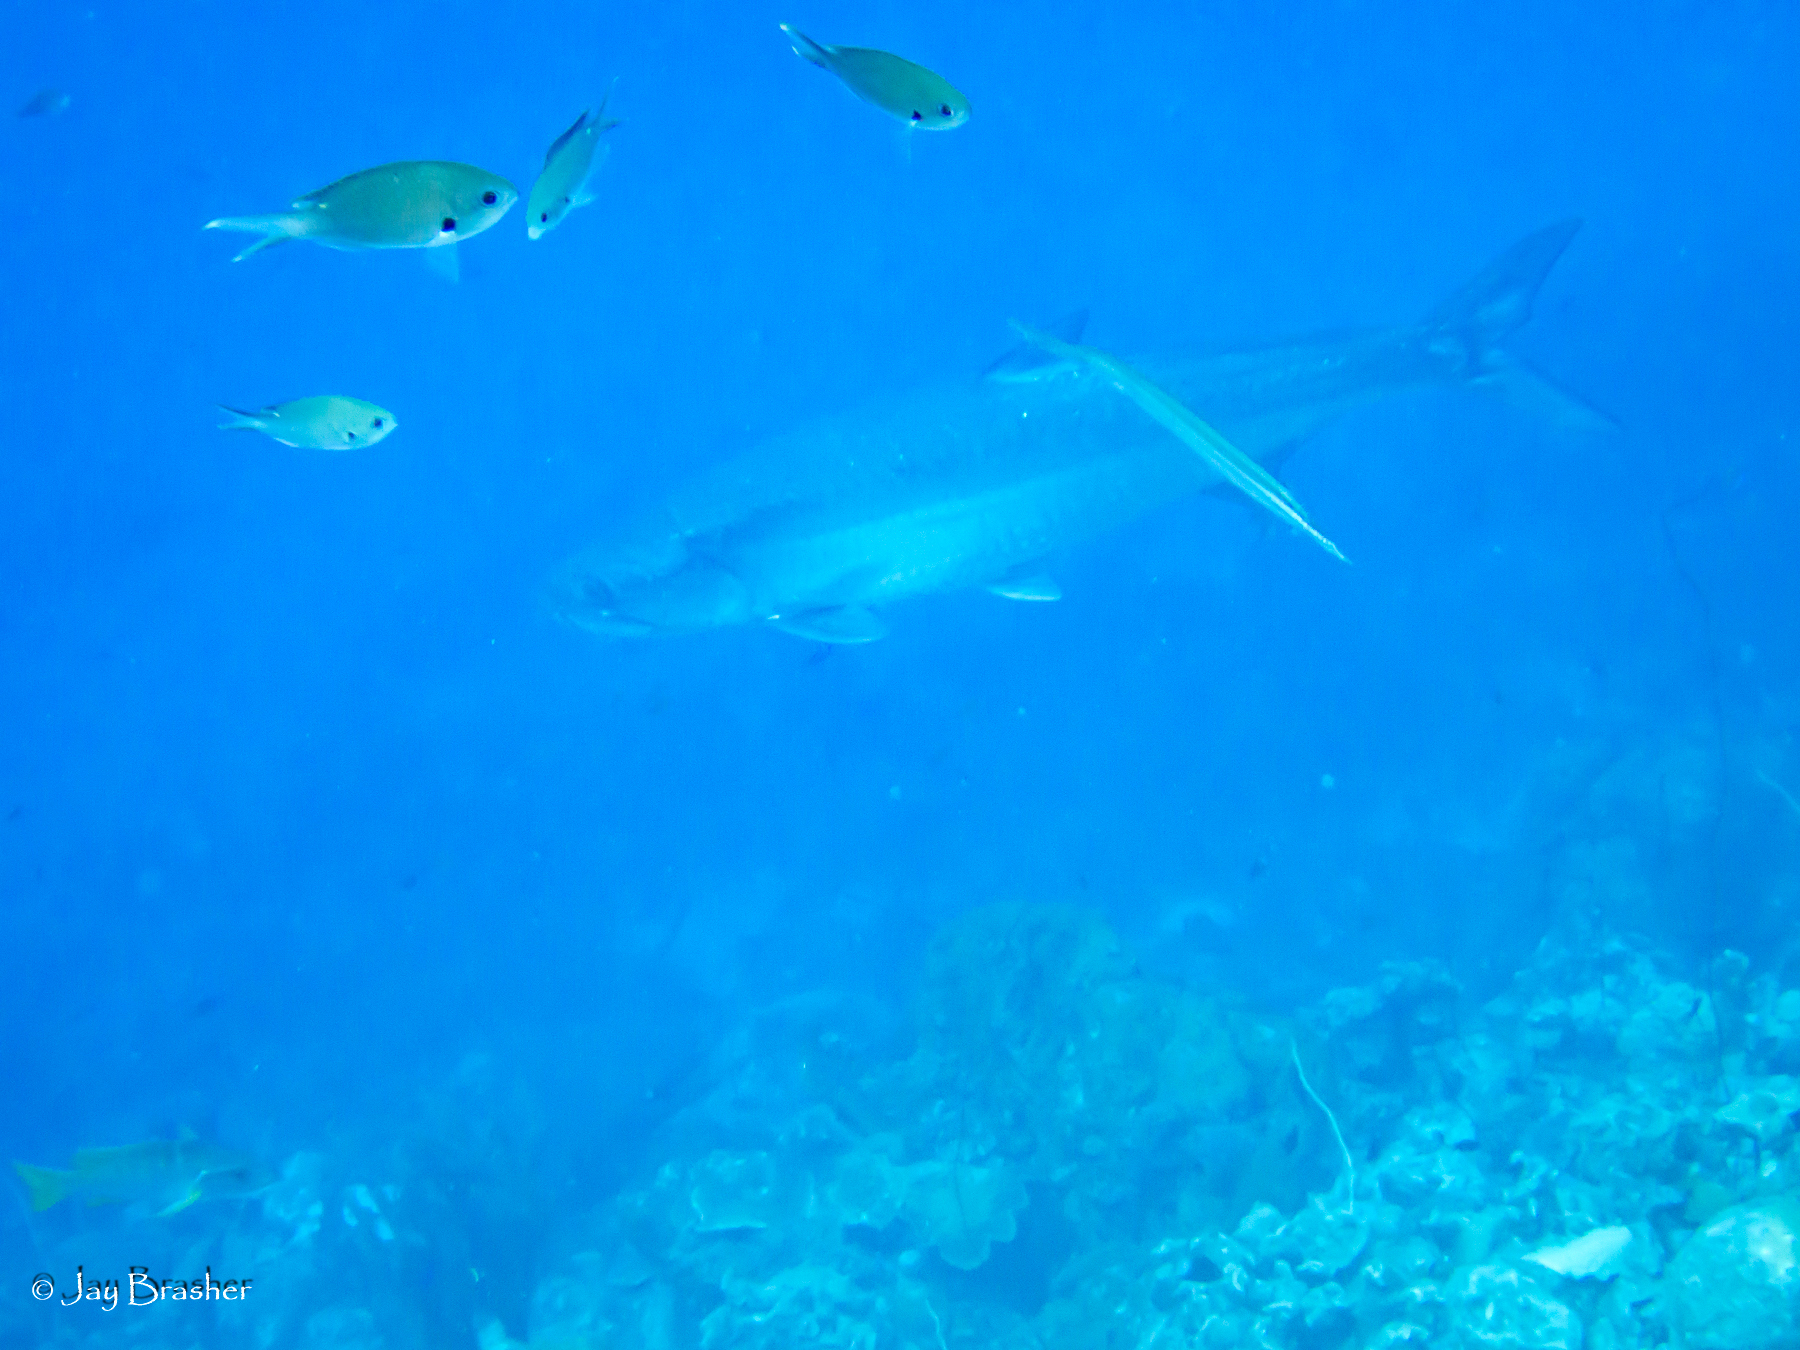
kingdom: Animalia
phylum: Chordata
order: Elopiformes
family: Megalopidae
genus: Megalops
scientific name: Megalops atlanticus
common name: Tarpon
